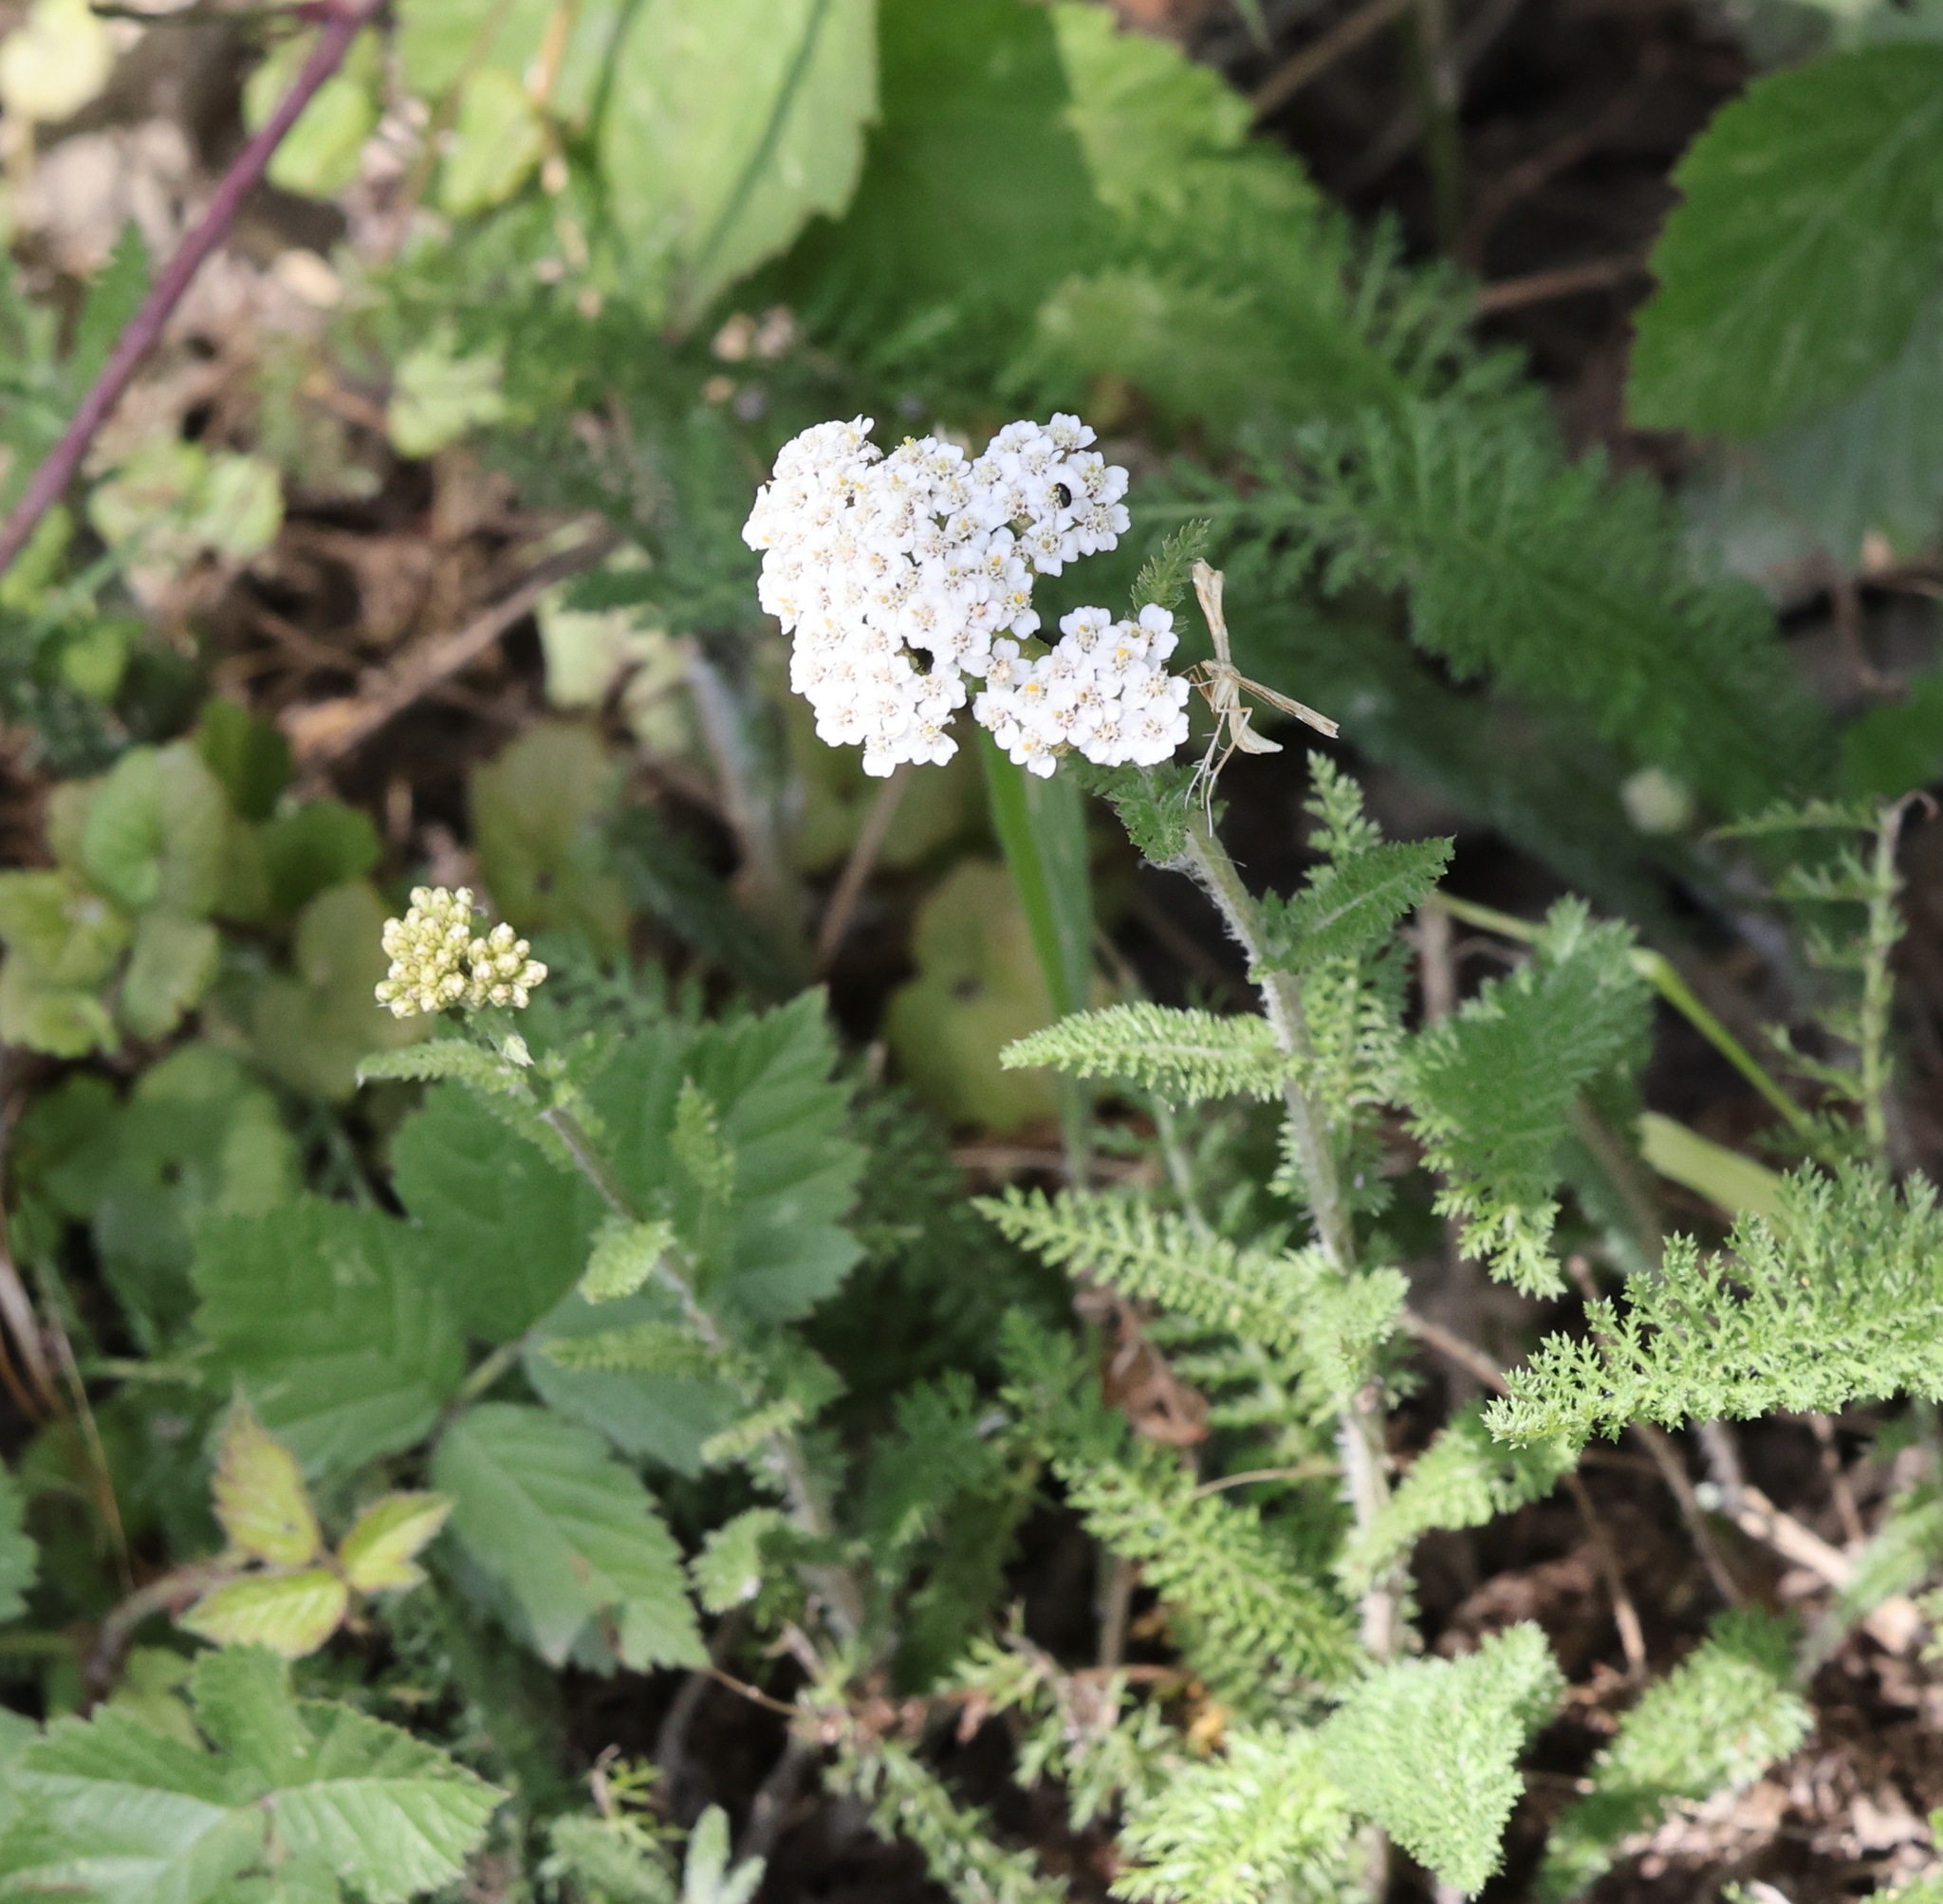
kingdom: Plantae
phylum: Tracheophyta
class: Magnoliopsida
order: Asterales
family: Asteraceae
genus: Achillea
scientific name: Achillea millefolium
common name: Yarrow
